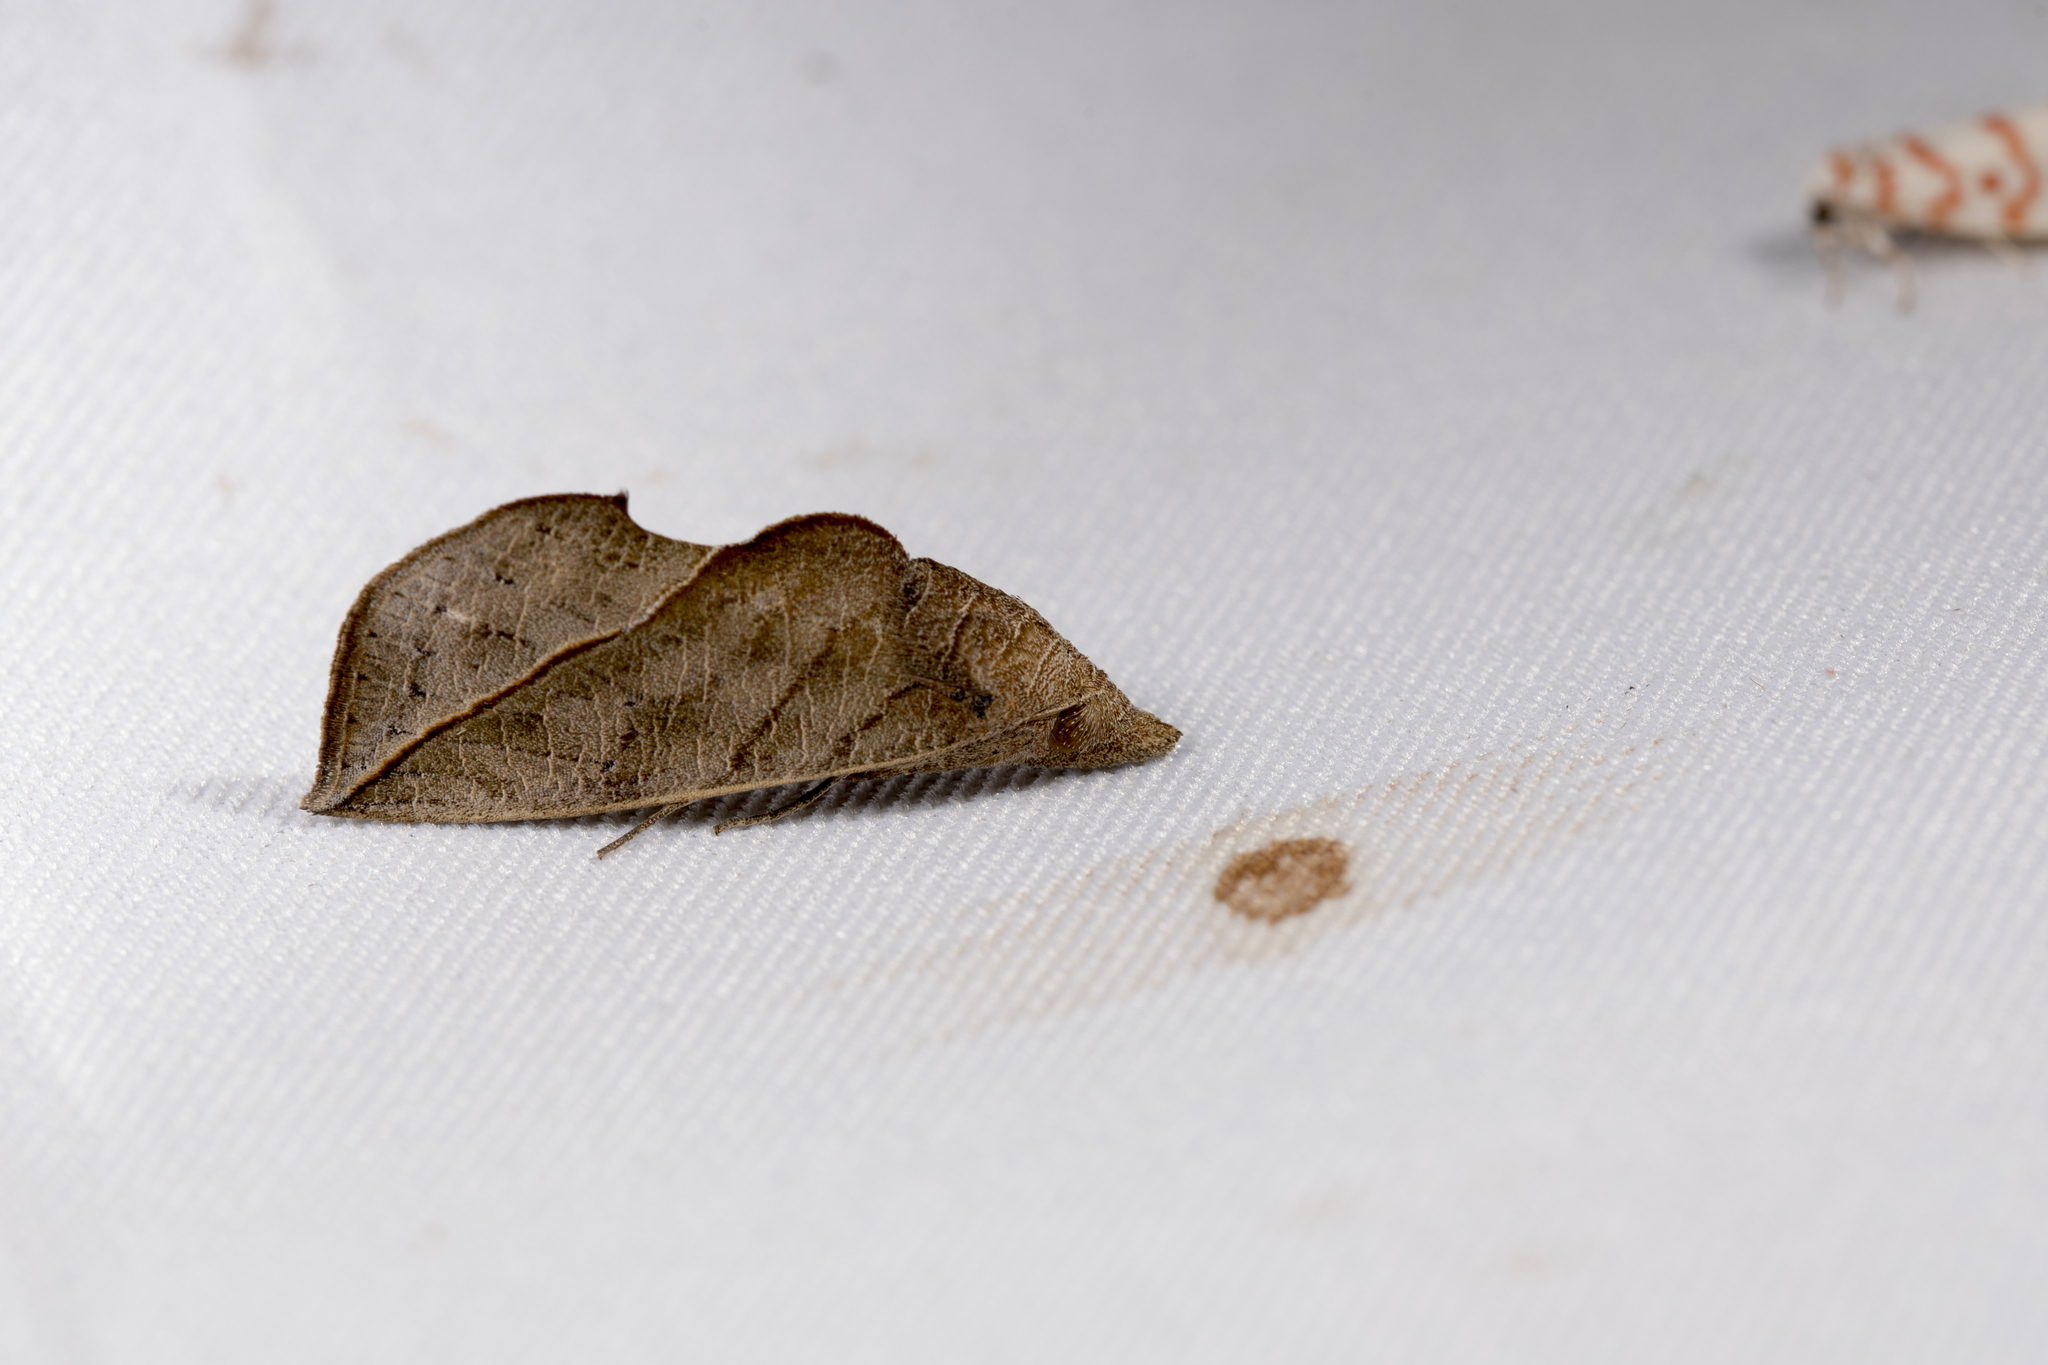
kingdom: Animalia
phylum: Arthropoda
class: Insecta
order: Lepidoptera
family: Erebidae
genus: Calyptra
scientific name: Calyptra minuticornis
